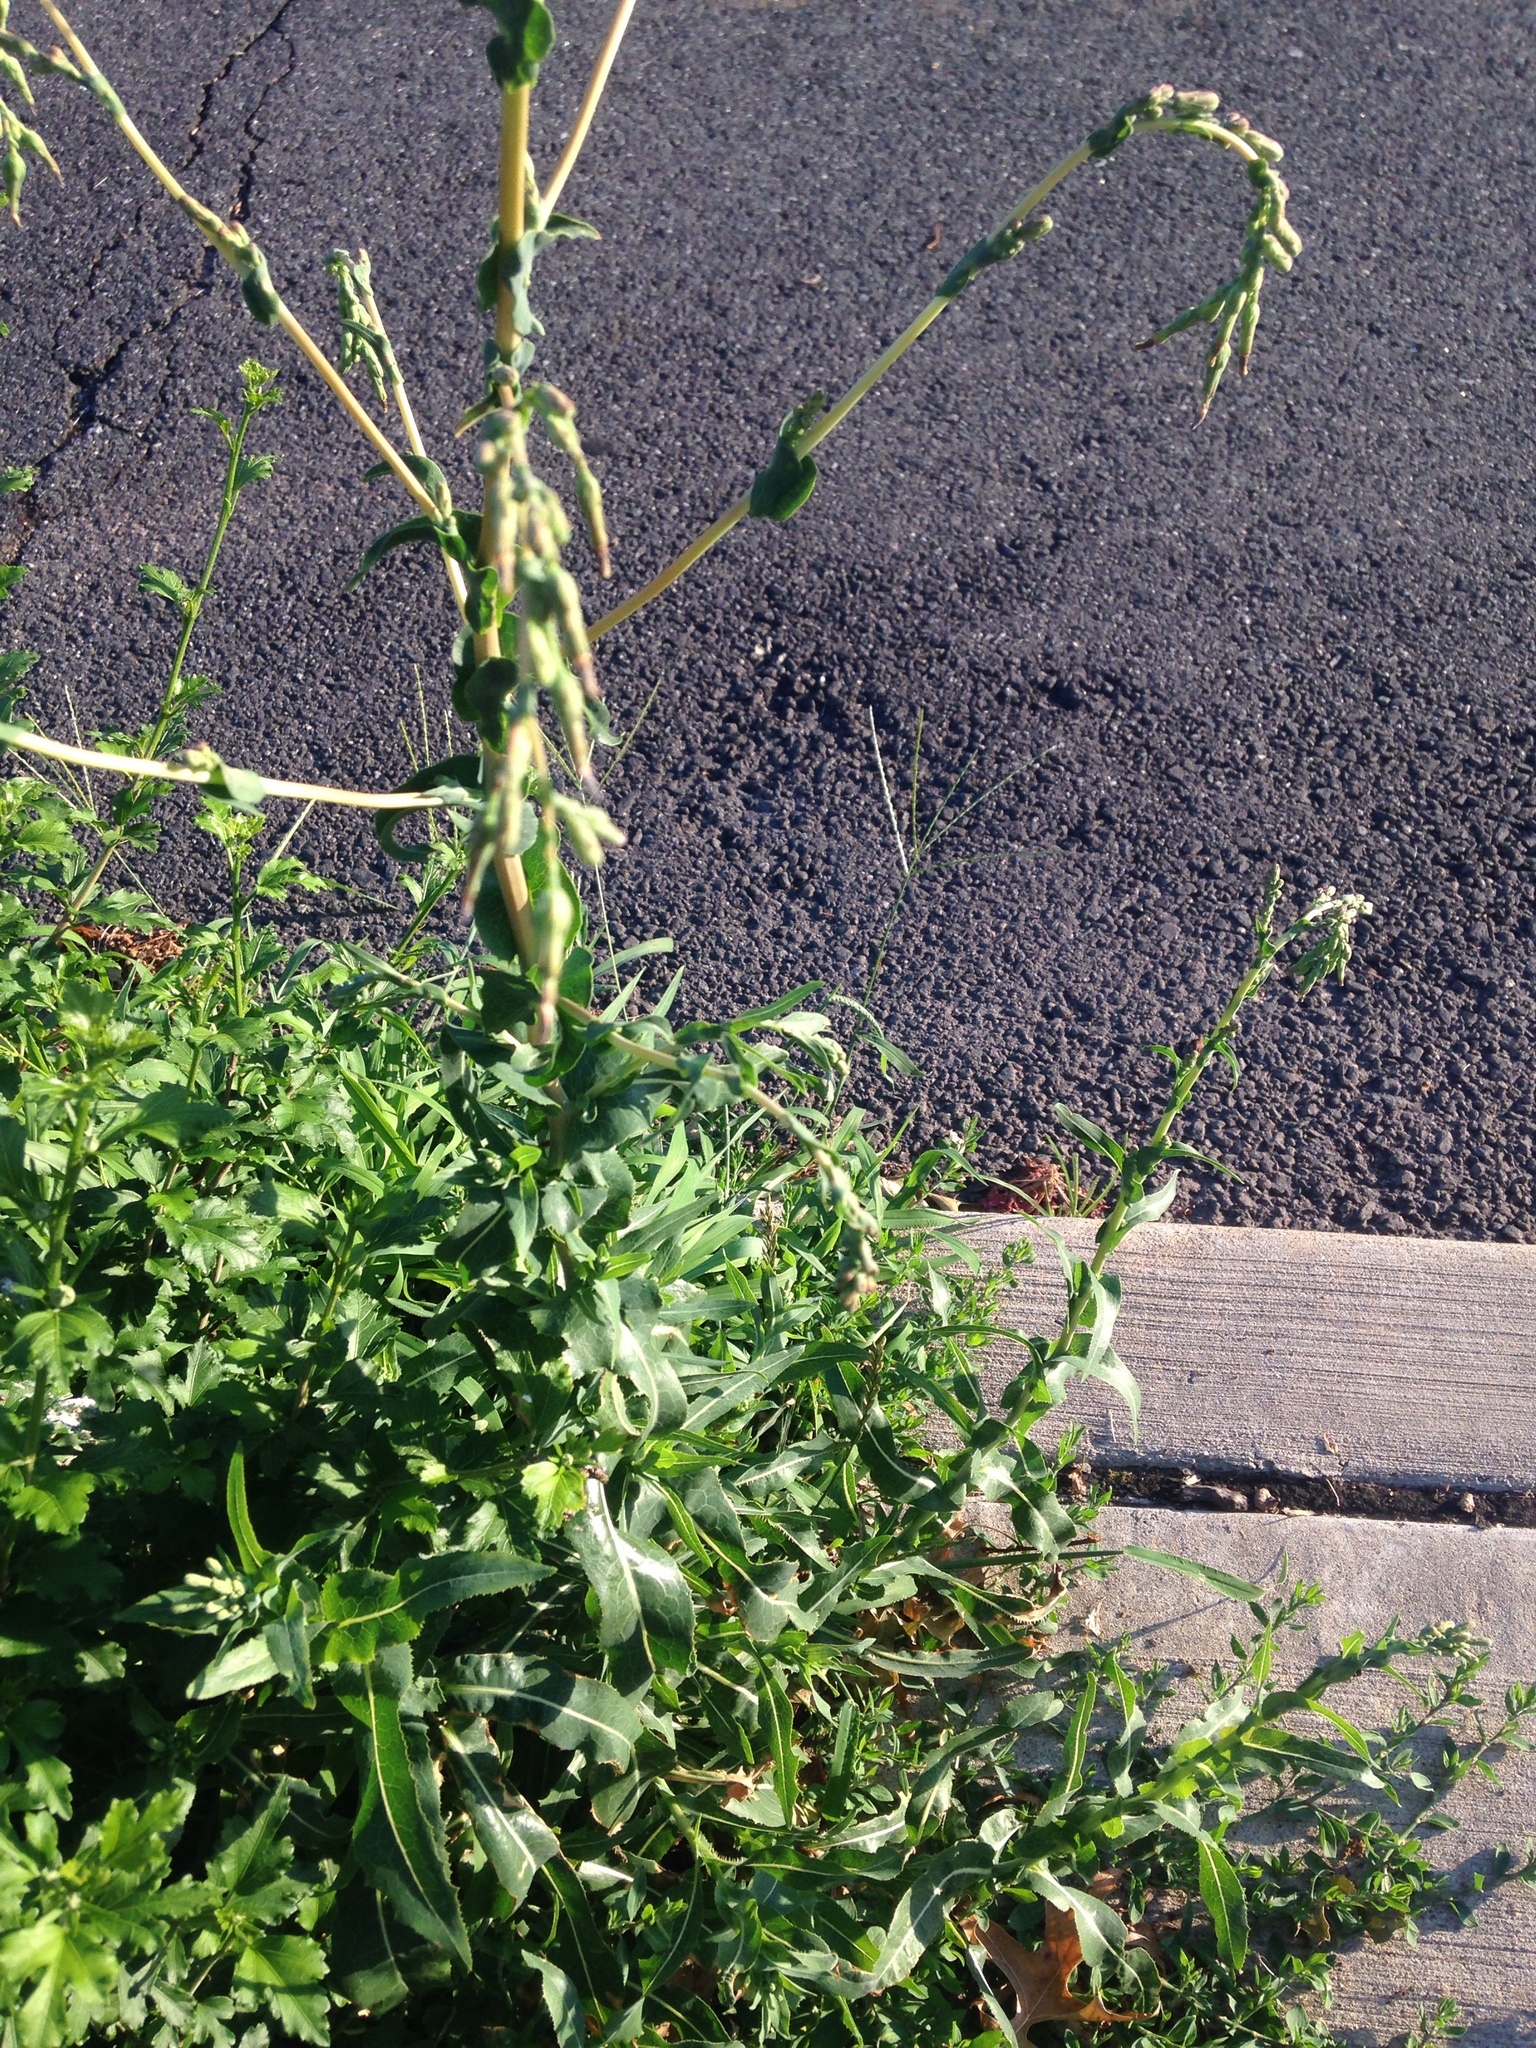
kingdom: Plantae
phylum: Tracheophyta
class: Magnoliopsida
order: Asterales
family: Asteraceae
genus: Lactuca
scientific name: Lactuca serriola
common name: Prickly lettuce
